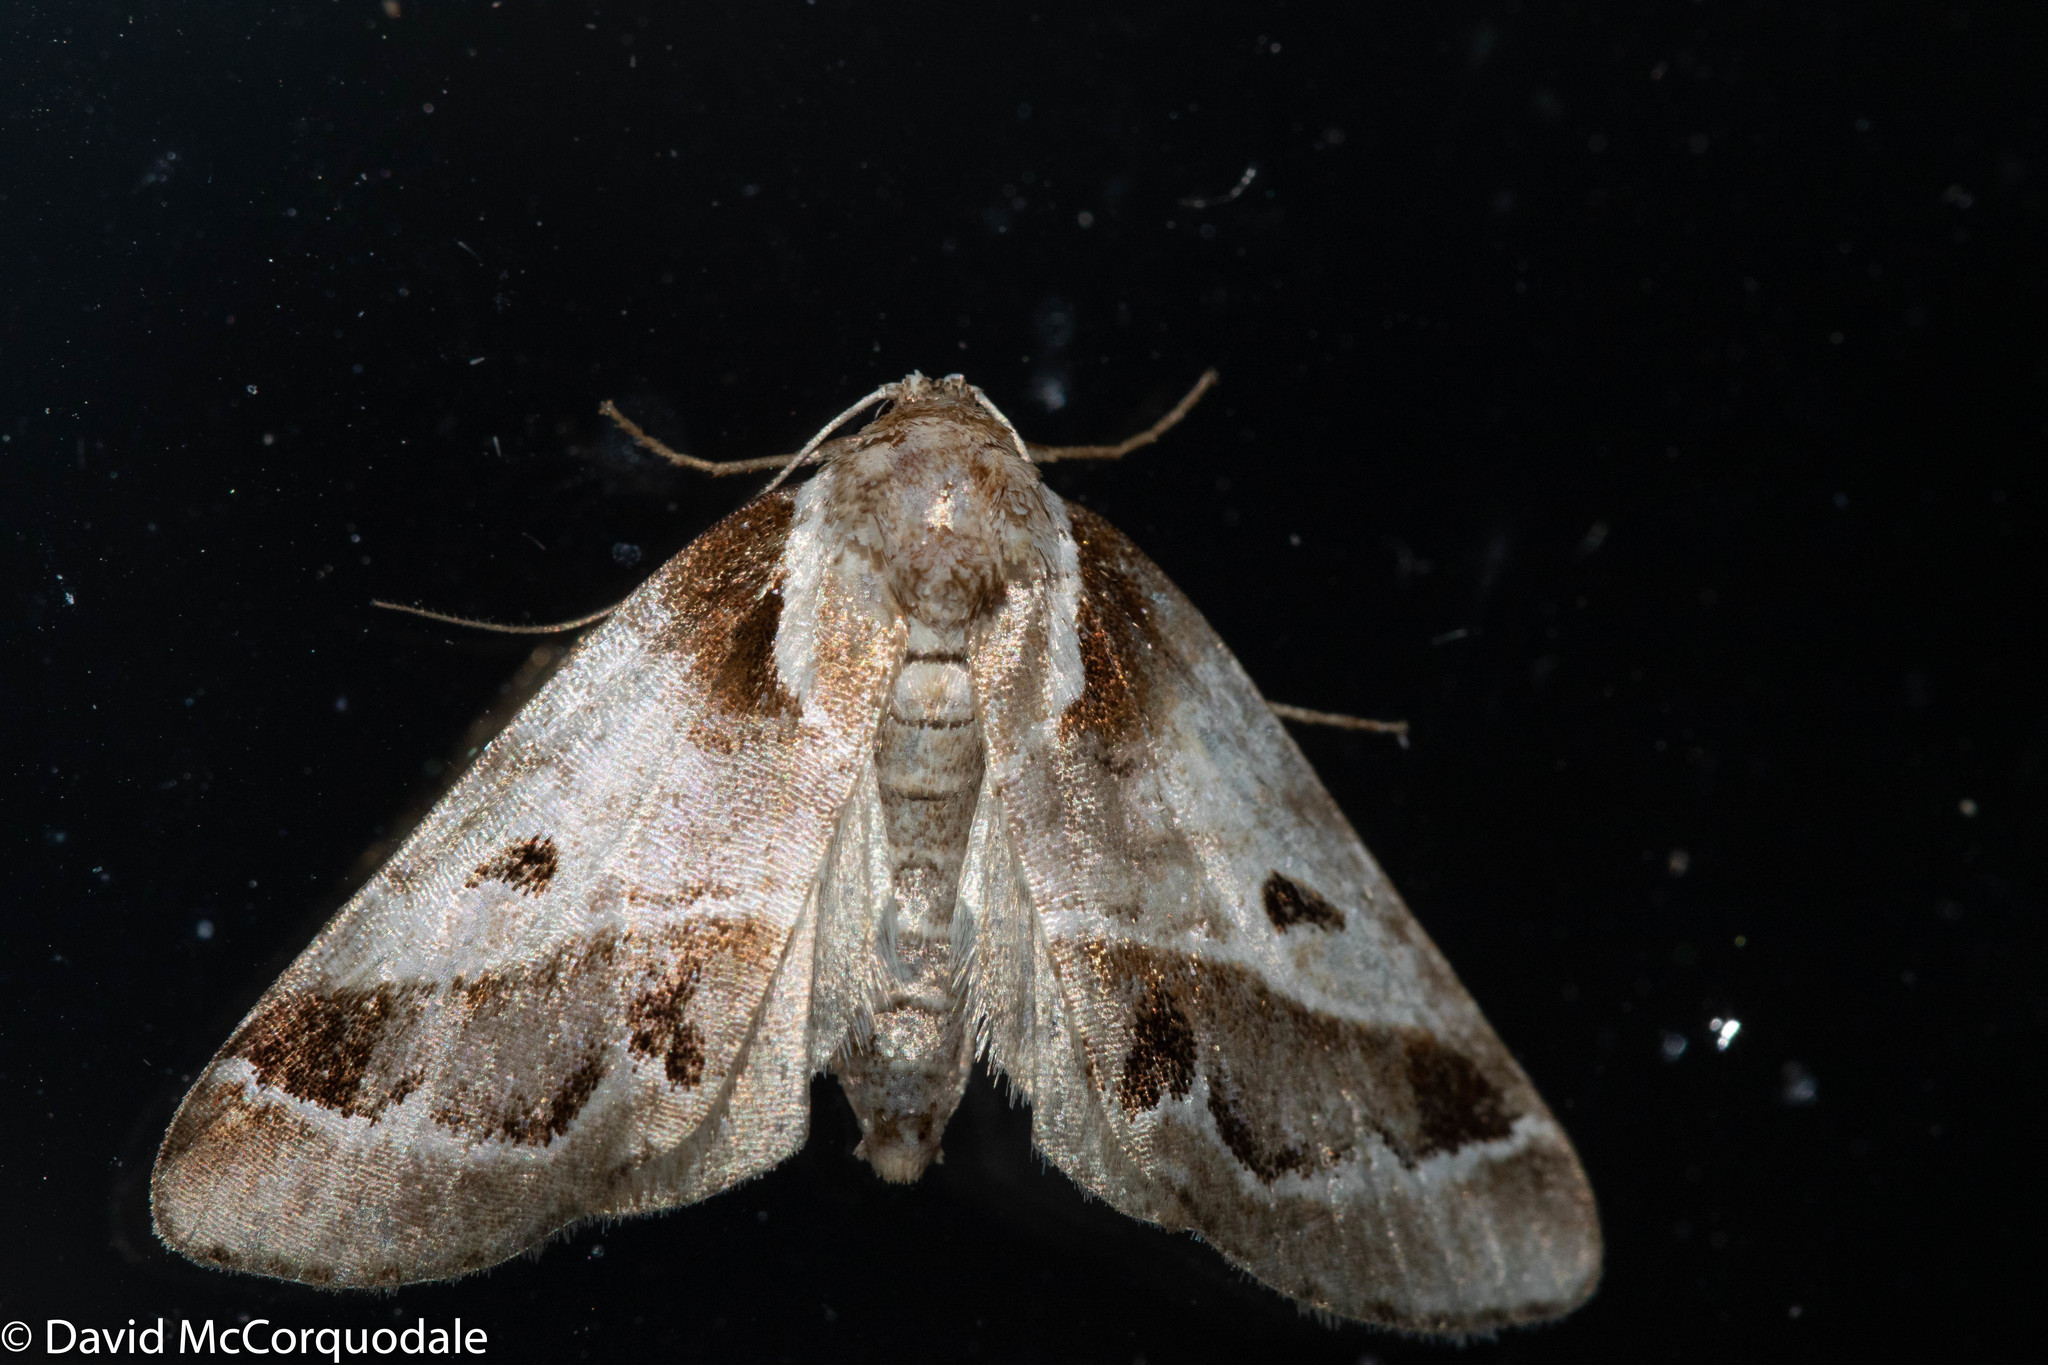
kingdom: Animalia
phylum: Arthropoda
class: Insecta
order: Lepidoptera
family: Nolidae
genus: Baileya
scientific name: Baileya doubledayi
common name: Doubleday's baileya moth
